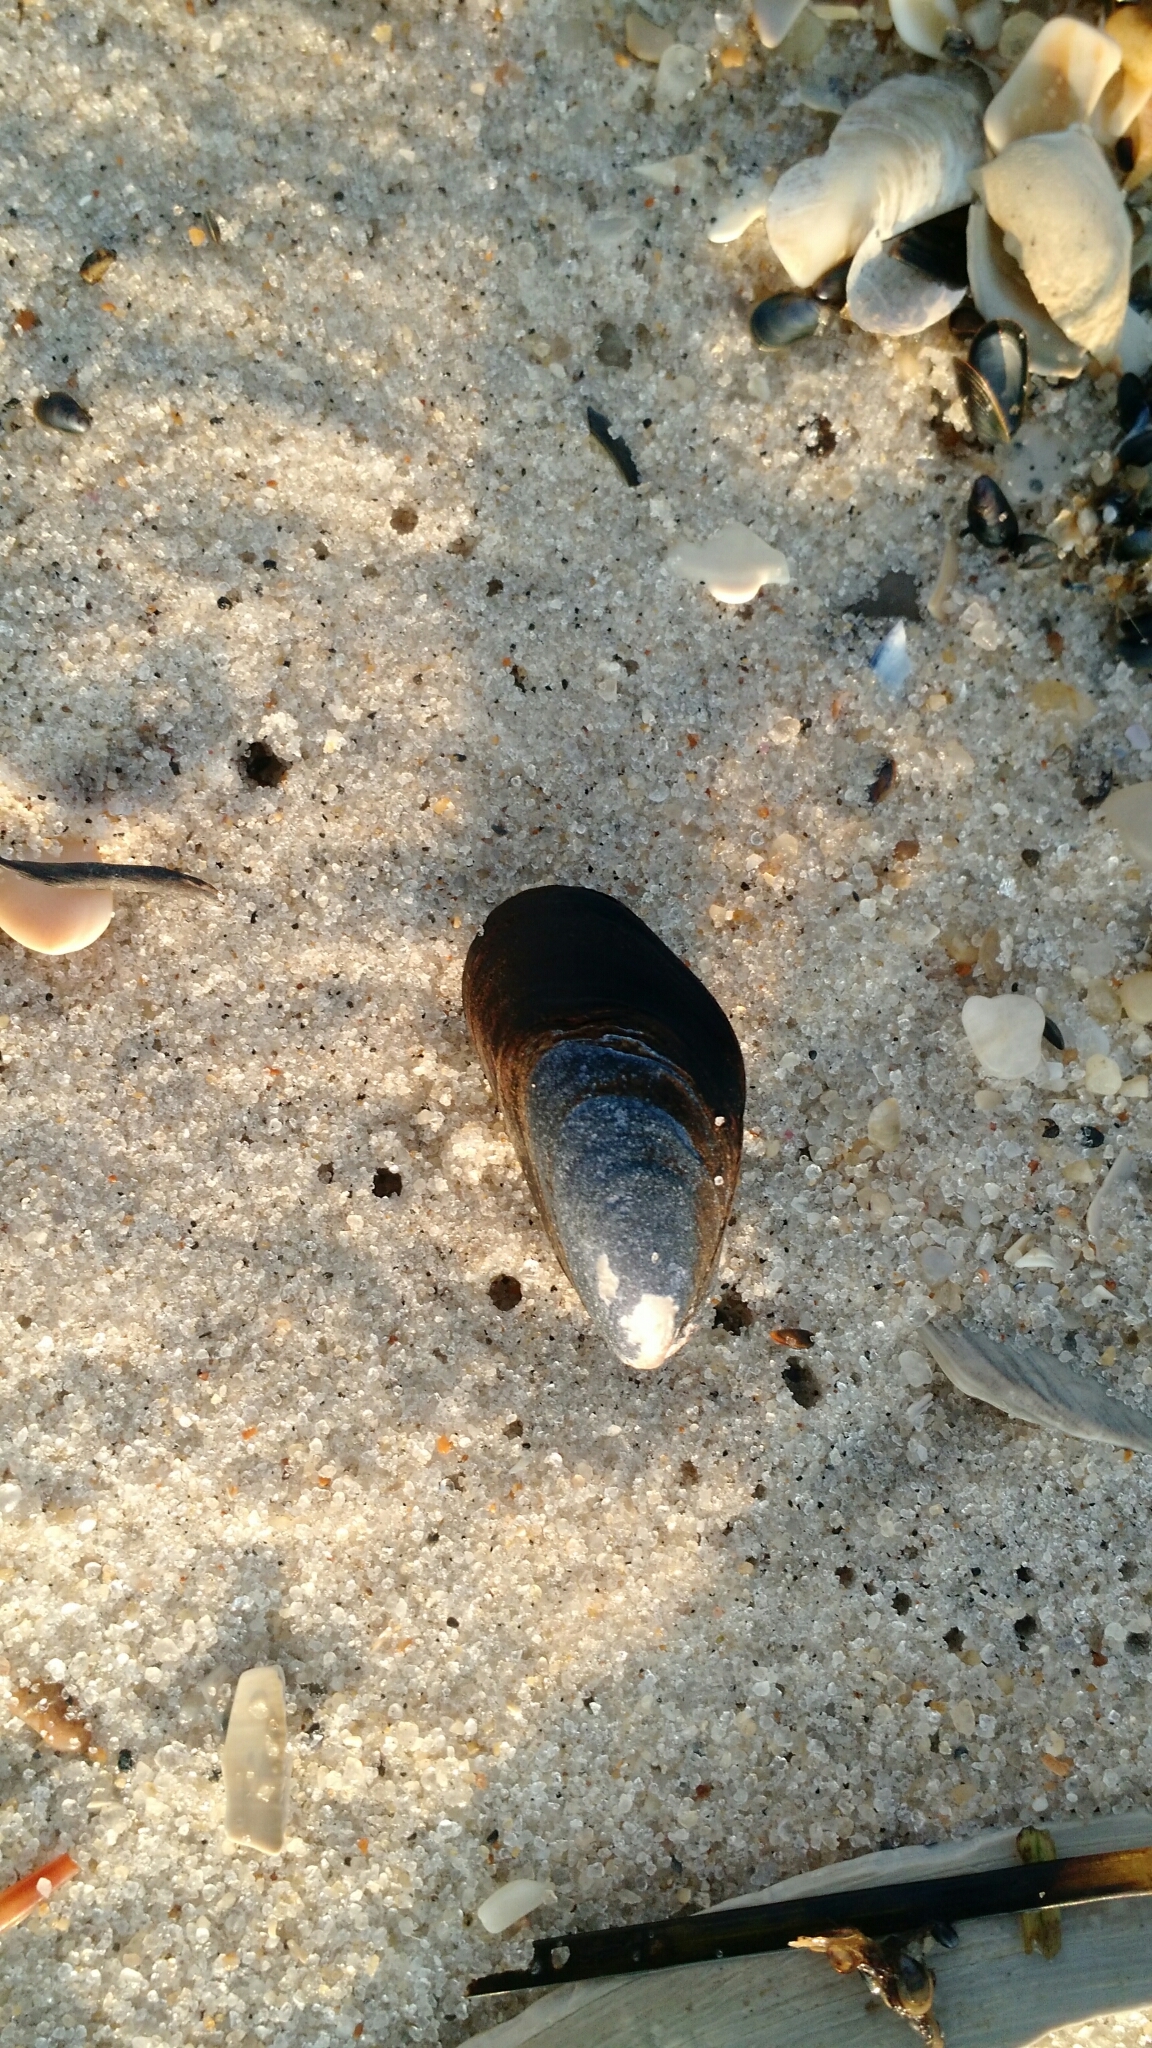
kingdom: Animalia
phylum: Mollusca
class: Bivalvia
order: Mytilida
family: Mytilidae
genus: Mytilus
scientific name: Mytilus edulis
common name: Blue mussel
